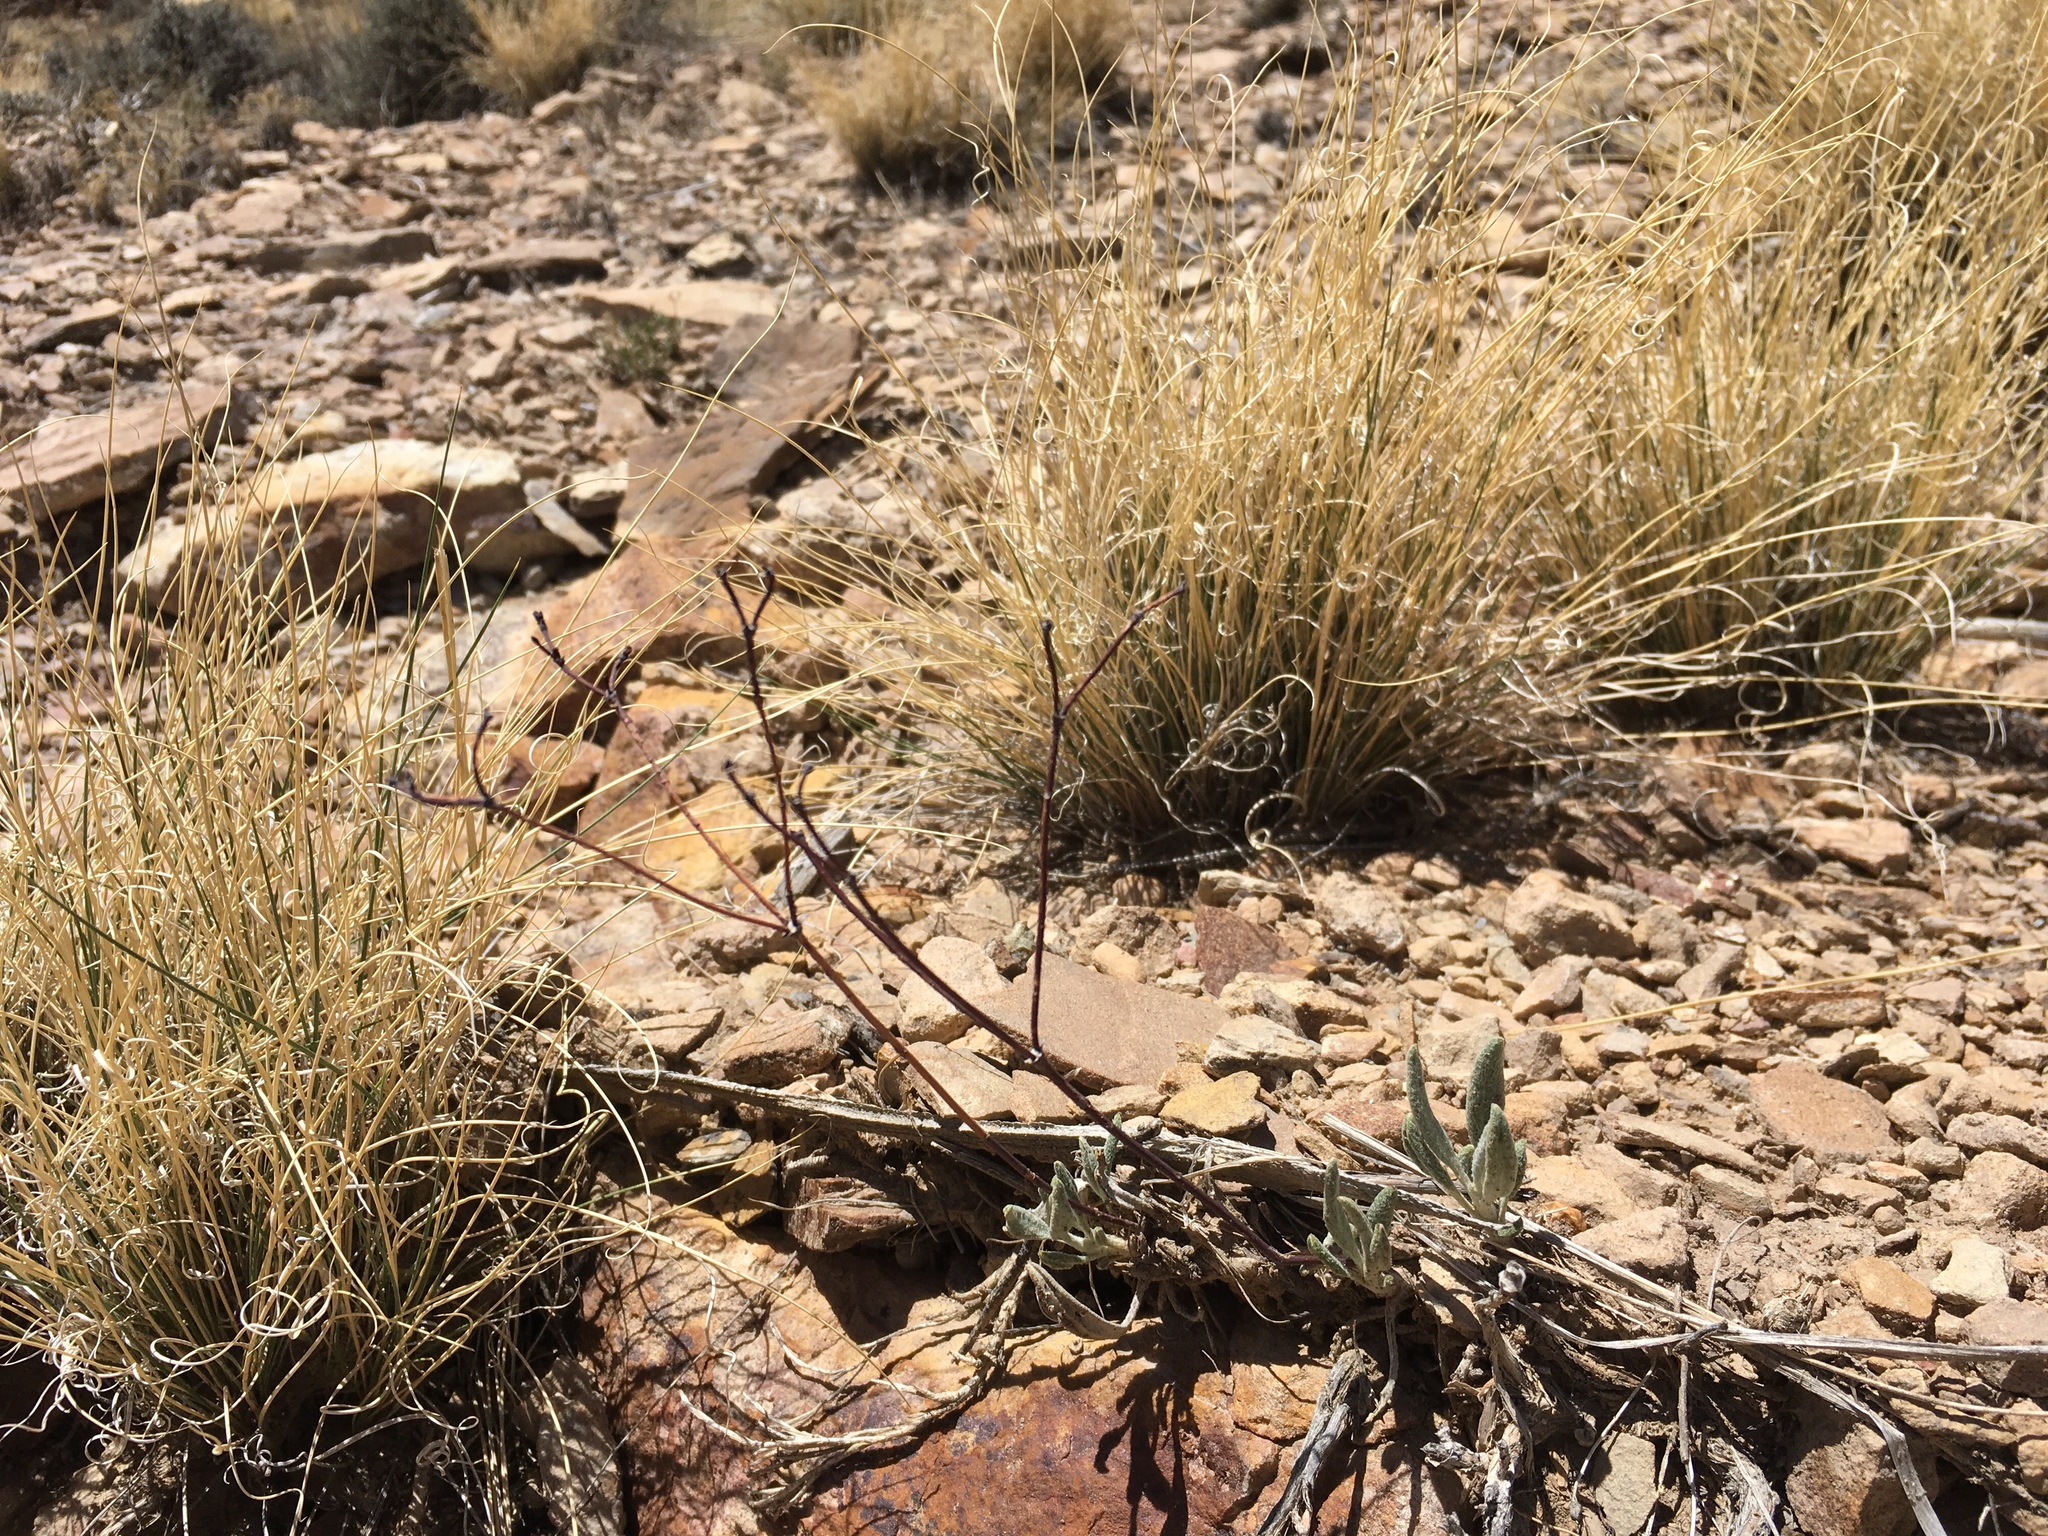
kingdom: Plantae
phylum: Tracheophyta
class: Magnoliopsida
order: Caryophyllales
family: Polygonaceae
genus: Eriogonum
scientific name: Eriogonum lonchophyllum
